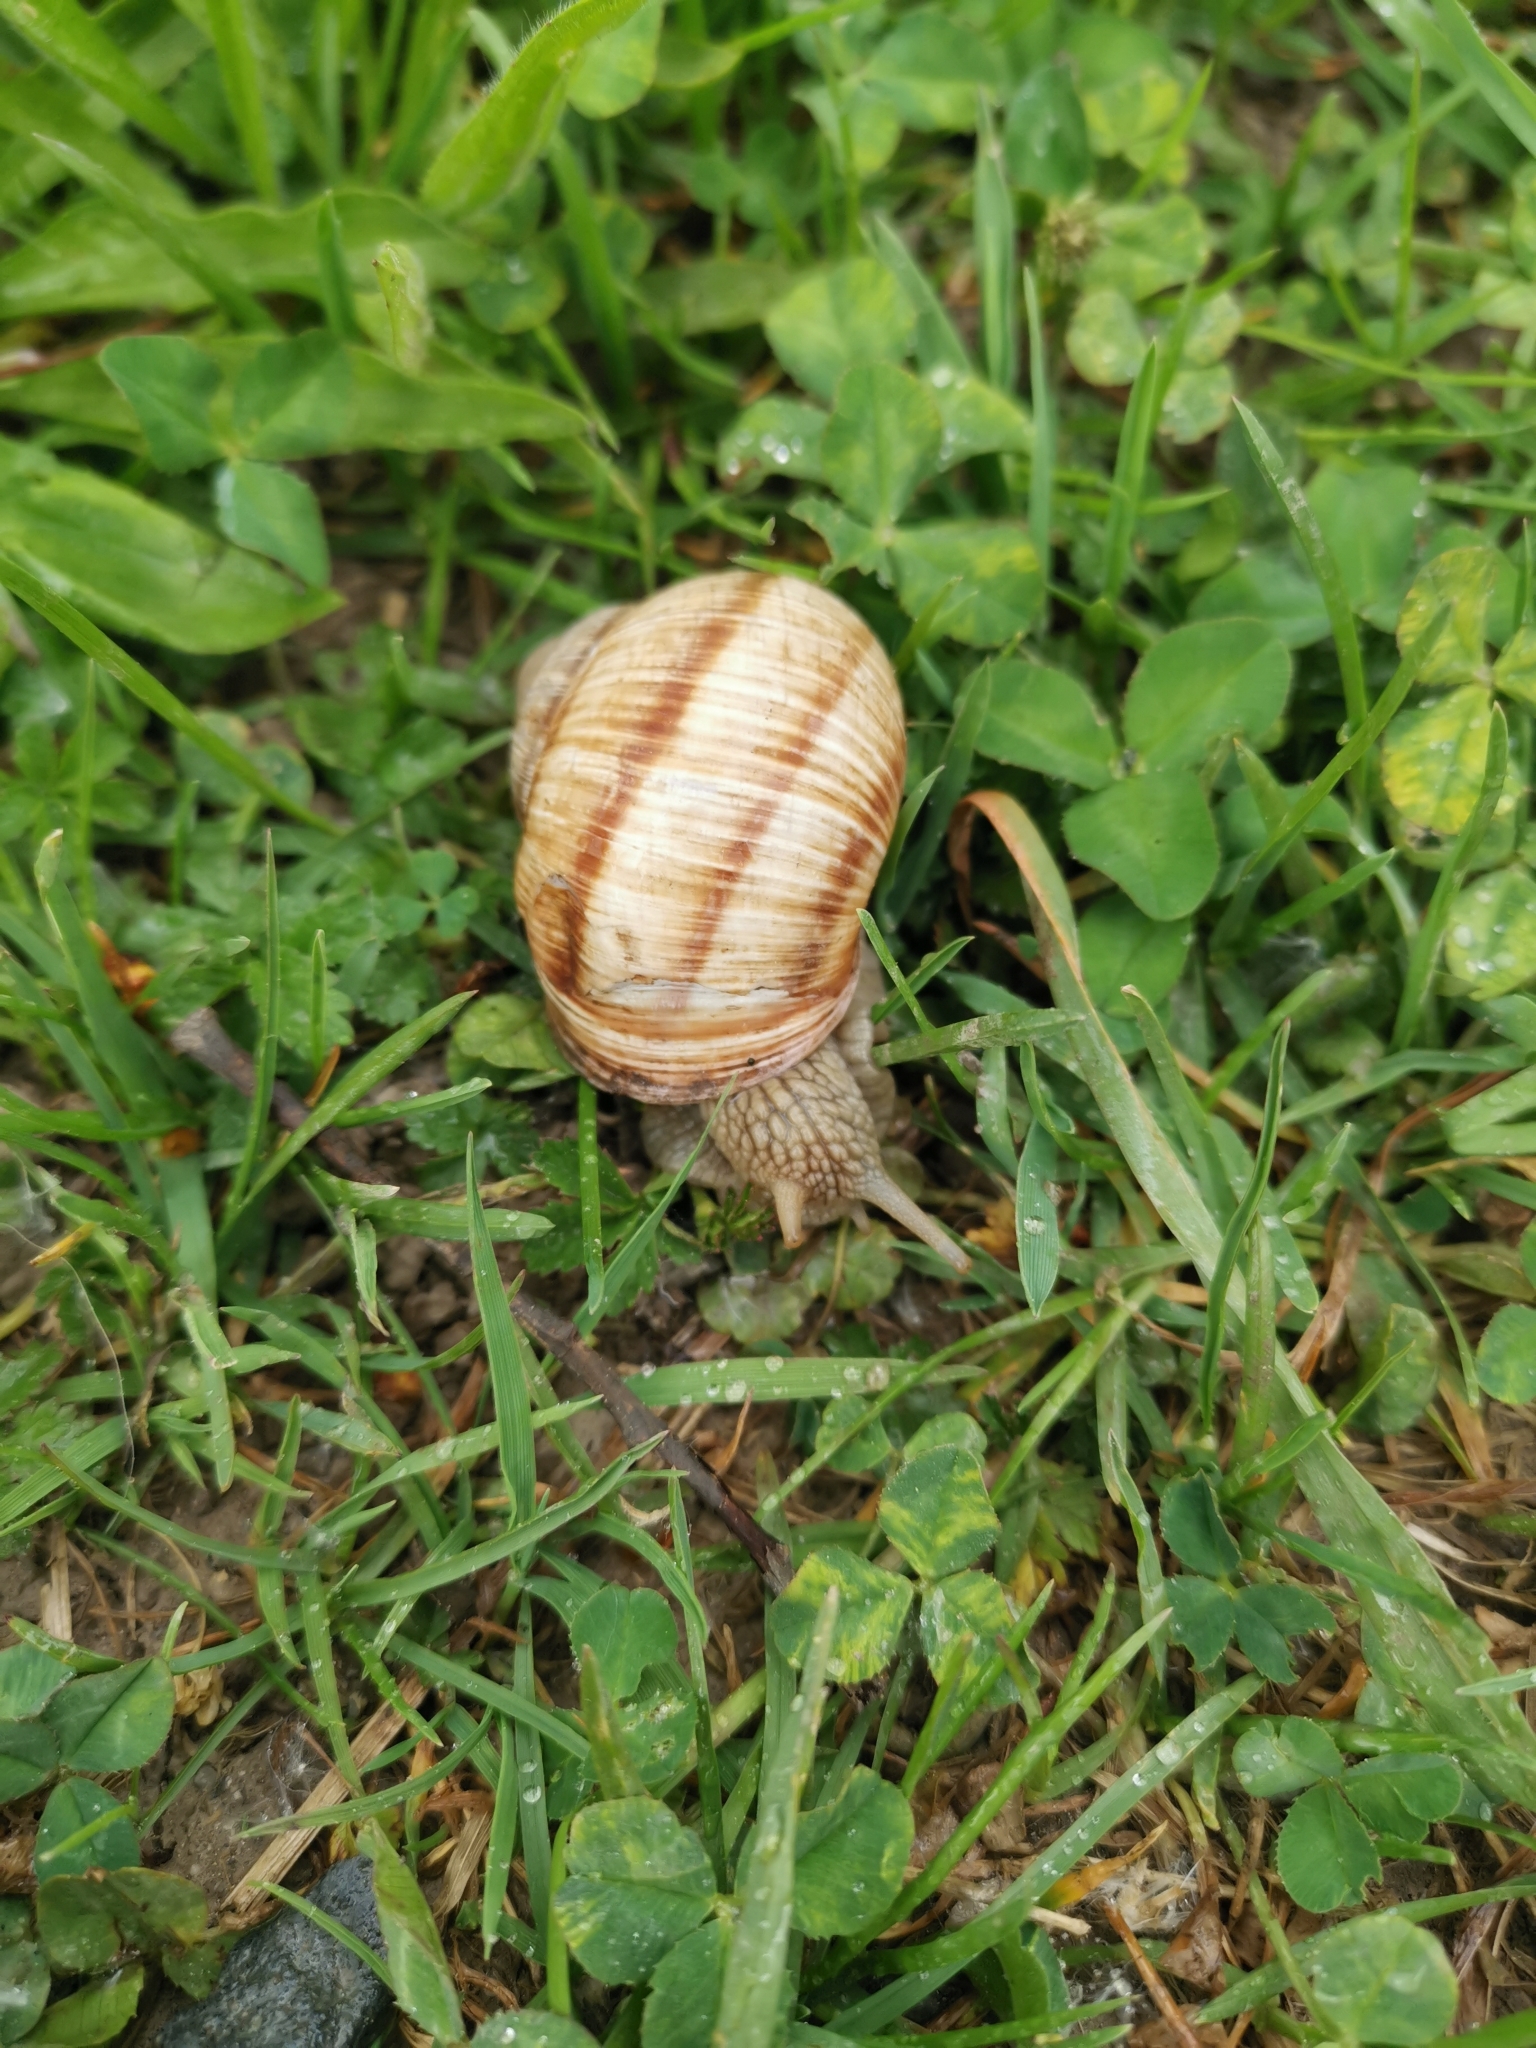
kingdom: Animalia
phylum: Mollusca
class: Gastropoda
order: Stylommatophora
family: Helicidae
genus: Helix
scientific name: Helix pomatia
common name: Roman snail
